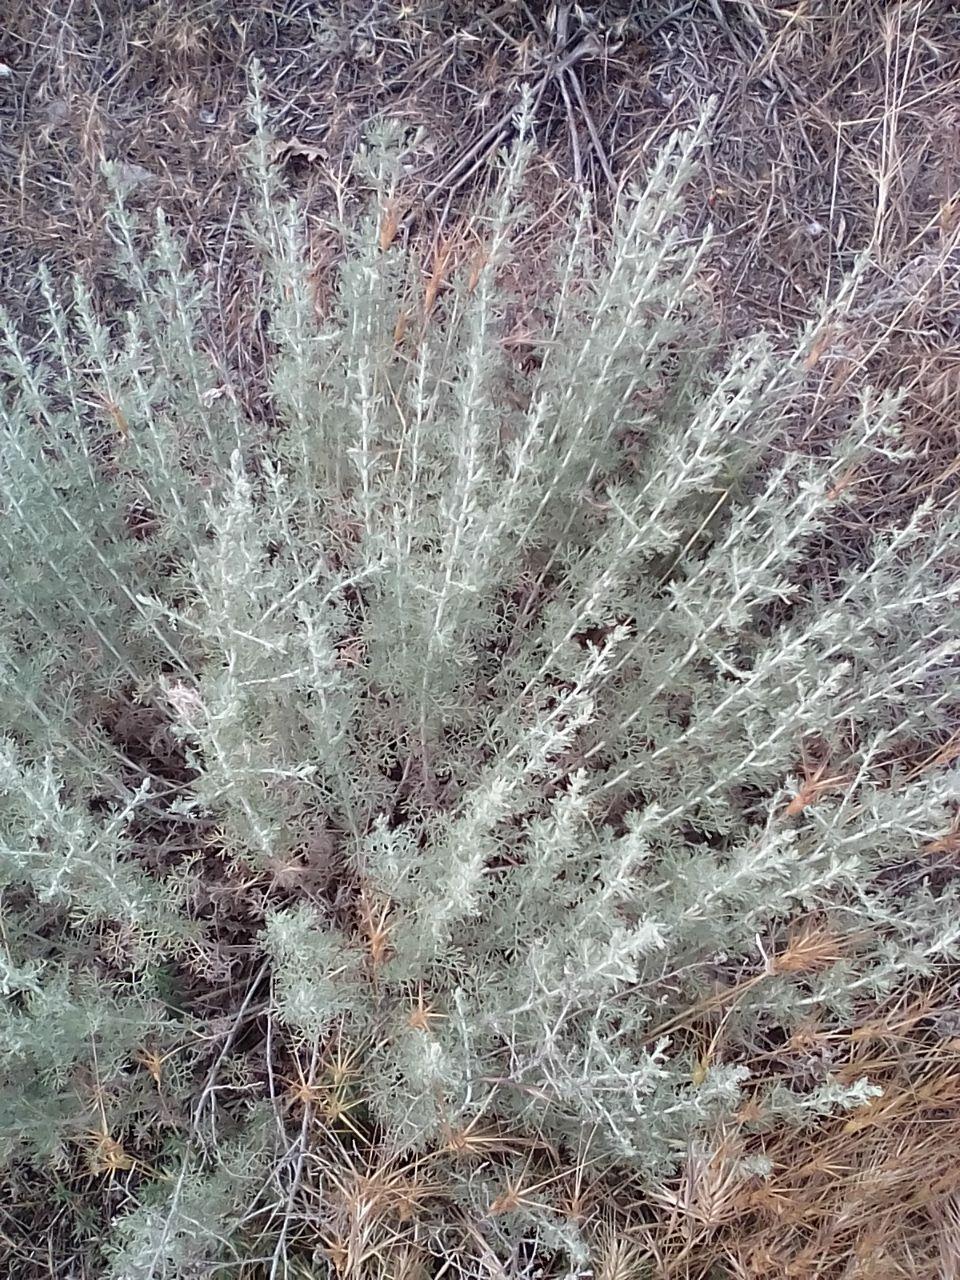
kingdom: Plantae
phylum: Tracheophyta
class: Magnoliopsida
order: Asterales
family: Asteraceae
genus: Artemisia
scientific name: Artemisia taurica
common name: Tauric wormwood
